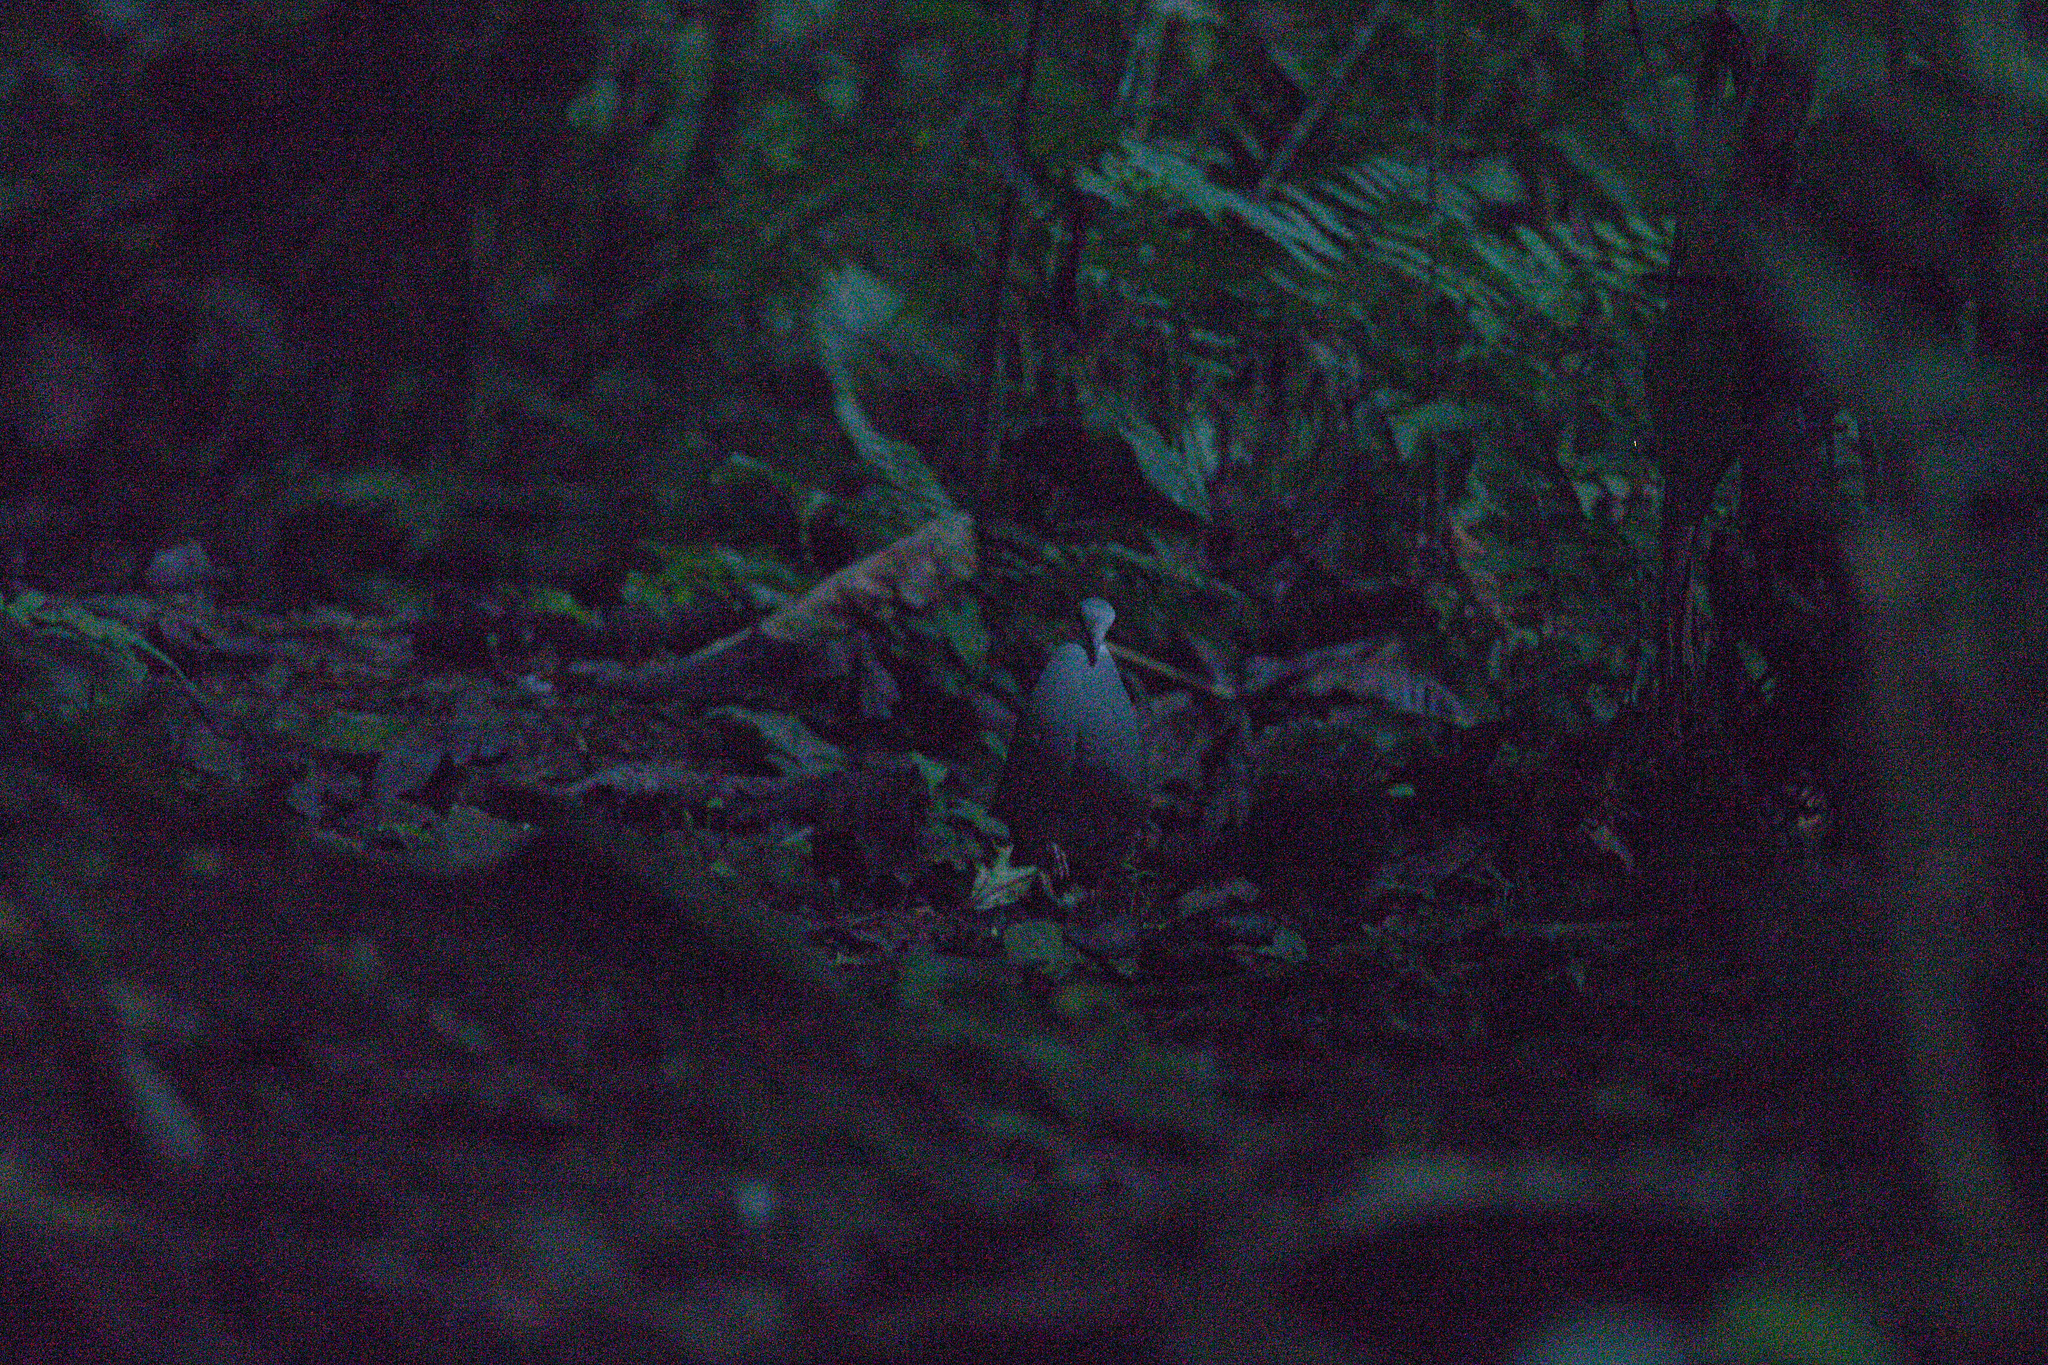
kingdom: Animalia
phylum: Chordata
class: Aves
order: Columbiformes
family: Columbidae
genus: Zentrygon
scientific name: Zentrygon lawrencii
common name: Purplish-backed quail-dove
